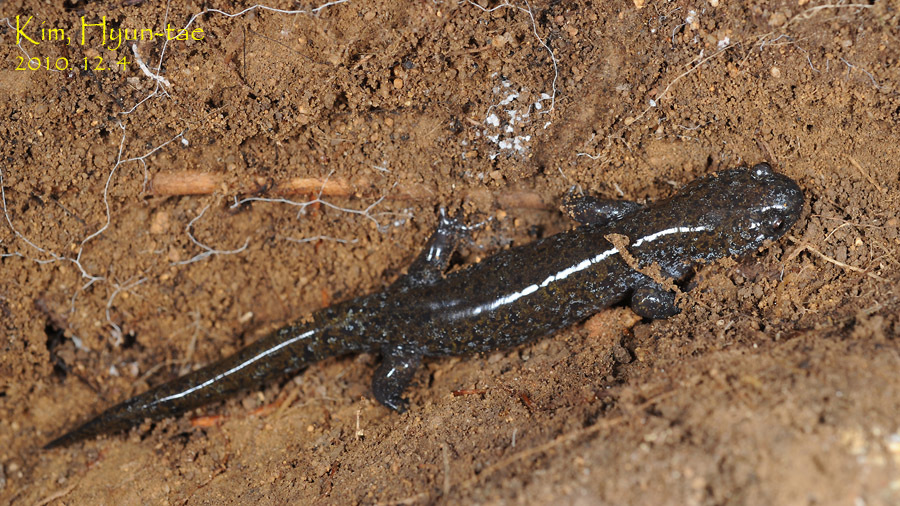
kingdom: Animalia
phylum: Chordata
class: Amphibia
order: Caudata
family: Hynobiidae
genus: Hynobius
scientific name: Hynobius leechii
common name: Gensan salamander
